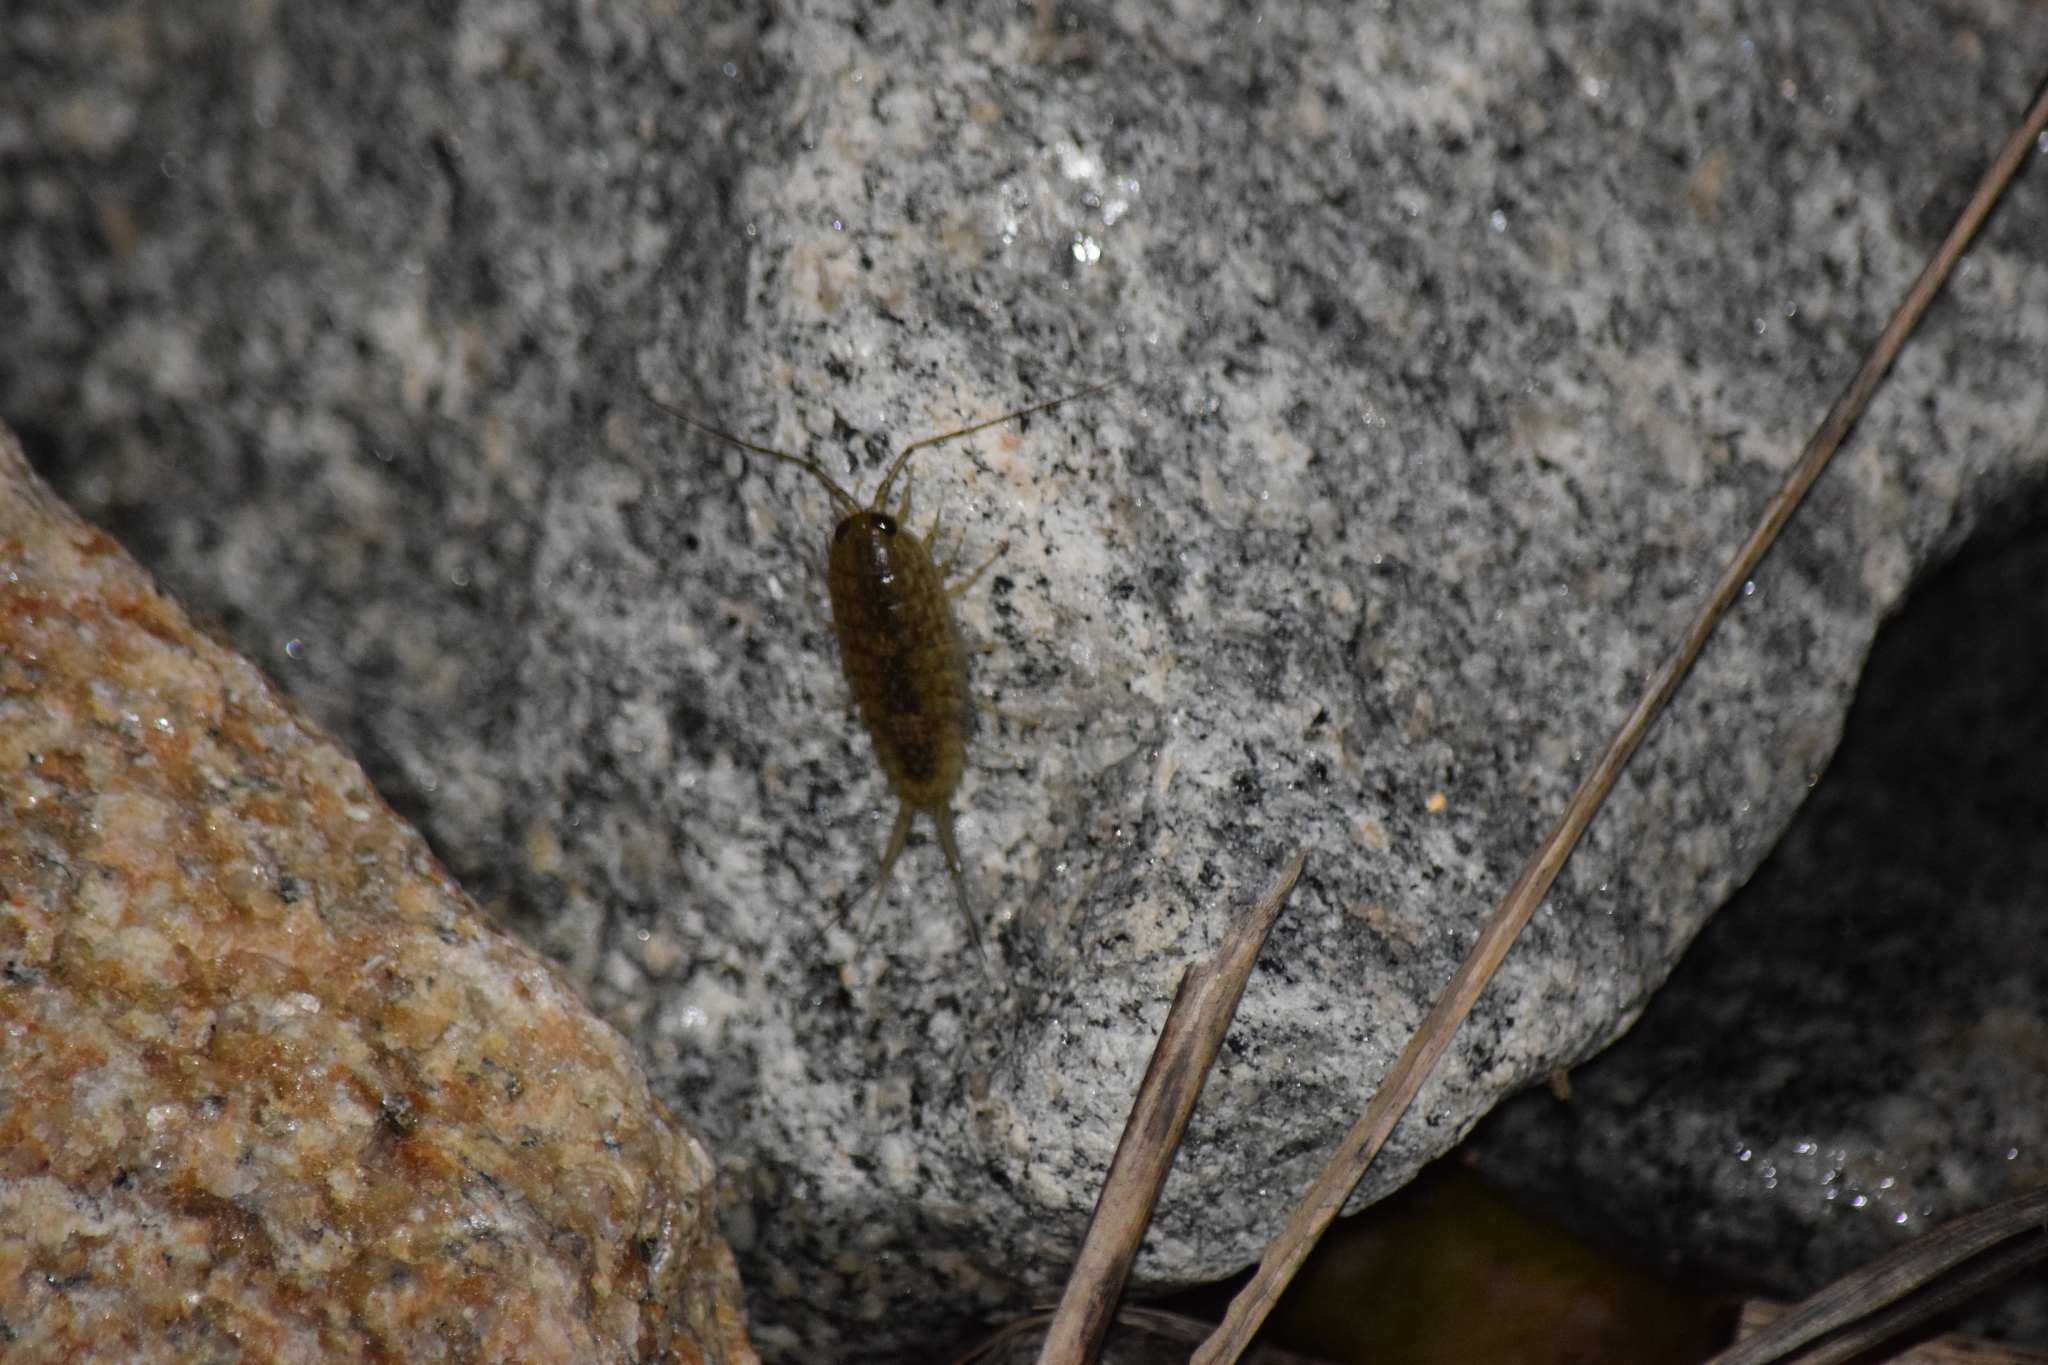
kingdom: Animalia
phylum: Arthropoda
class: Malacostraca
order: Isopoda
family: Ligiidae
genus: Ligia
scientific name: Ligia exotica
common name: Wharf roach
